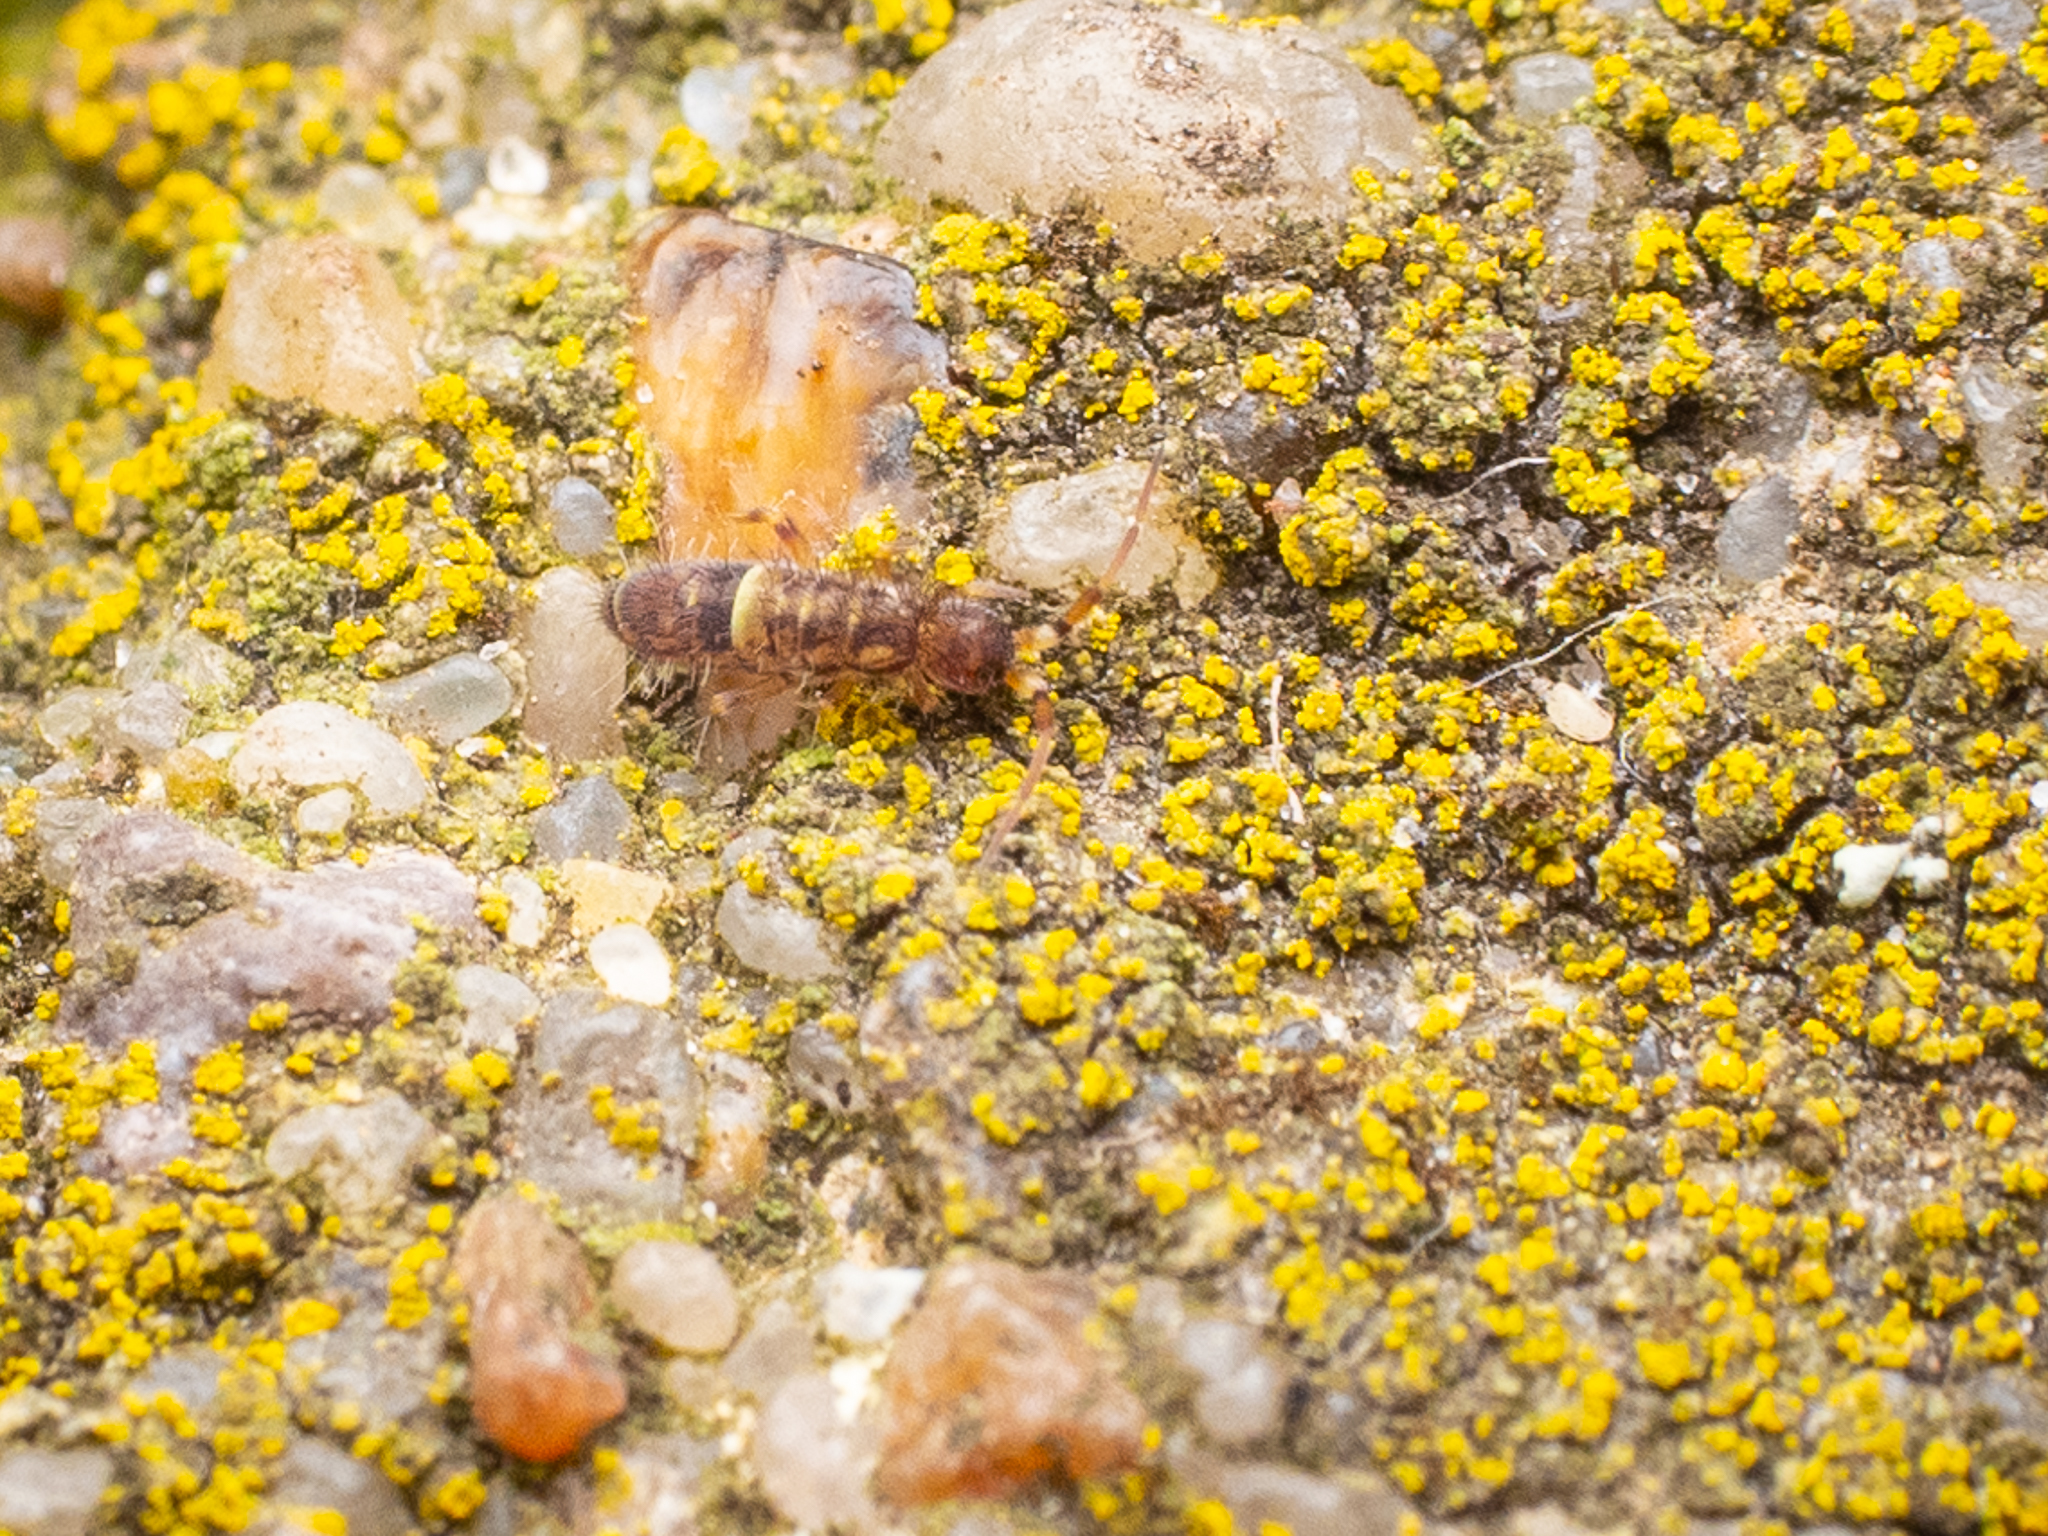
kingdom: Animalia
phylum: Arthropoda
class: Collembola
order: Entomobryomorpha
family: Orchesellidae
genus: Orchesella
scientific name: Orchesella cincta
